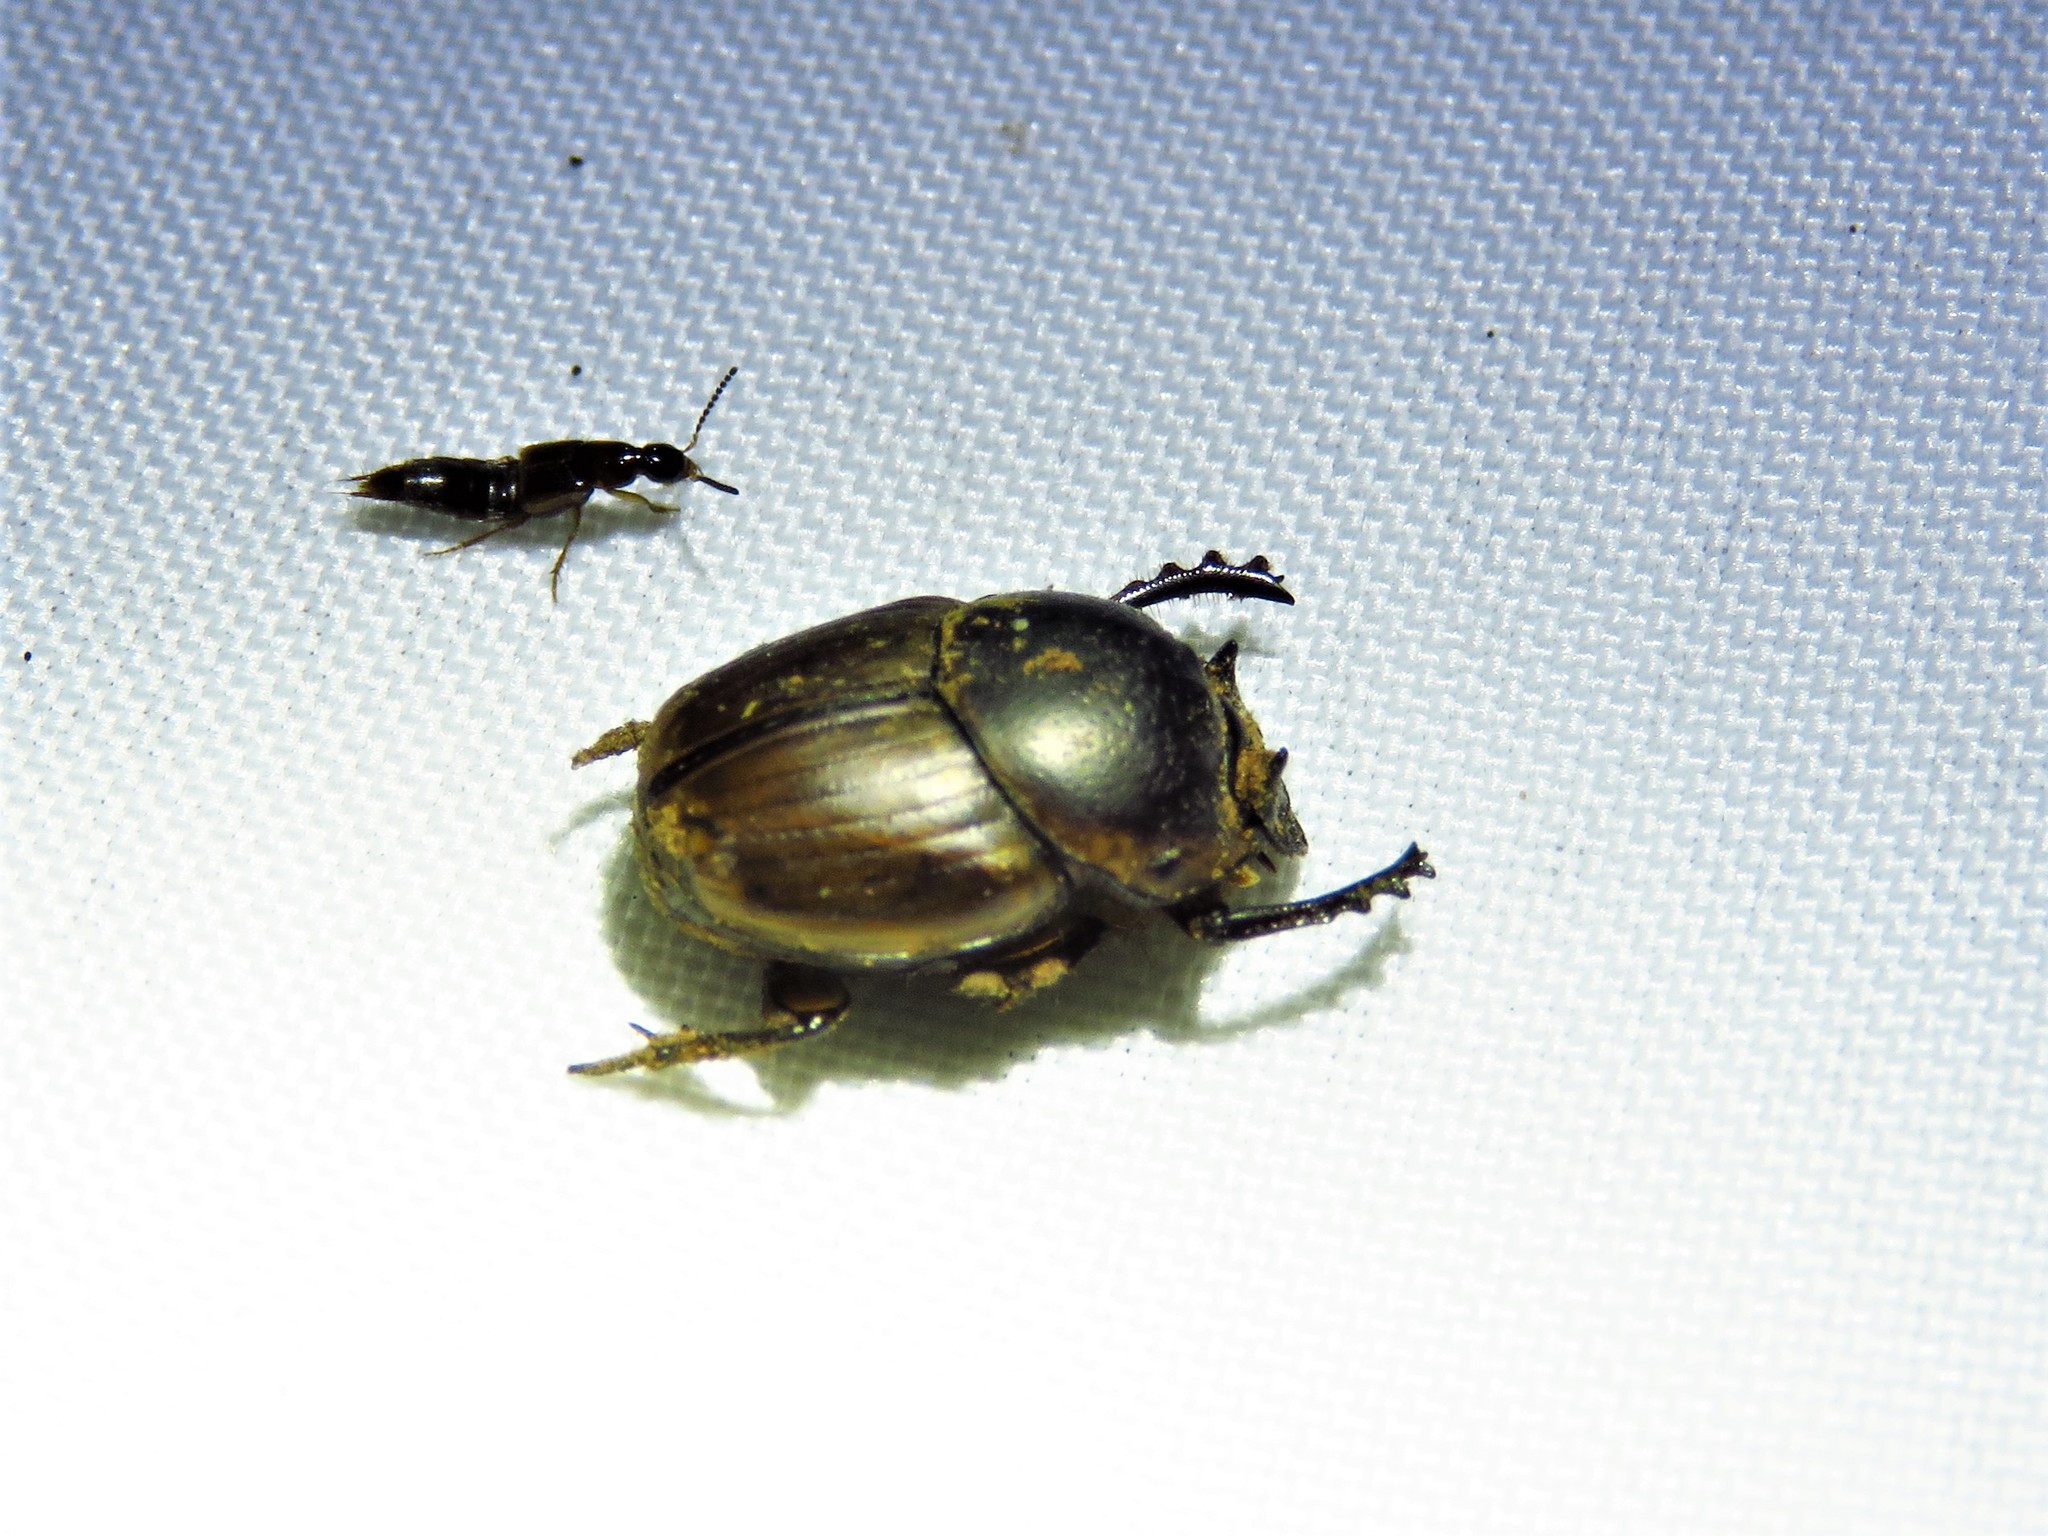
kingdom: Animalia
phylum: Arthropoda
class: Insecta
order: Coleoptera
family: Scarabaeidae
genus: Digitonthophagus
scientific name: Digitonthophagus gazella
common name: Brown dung beetle
